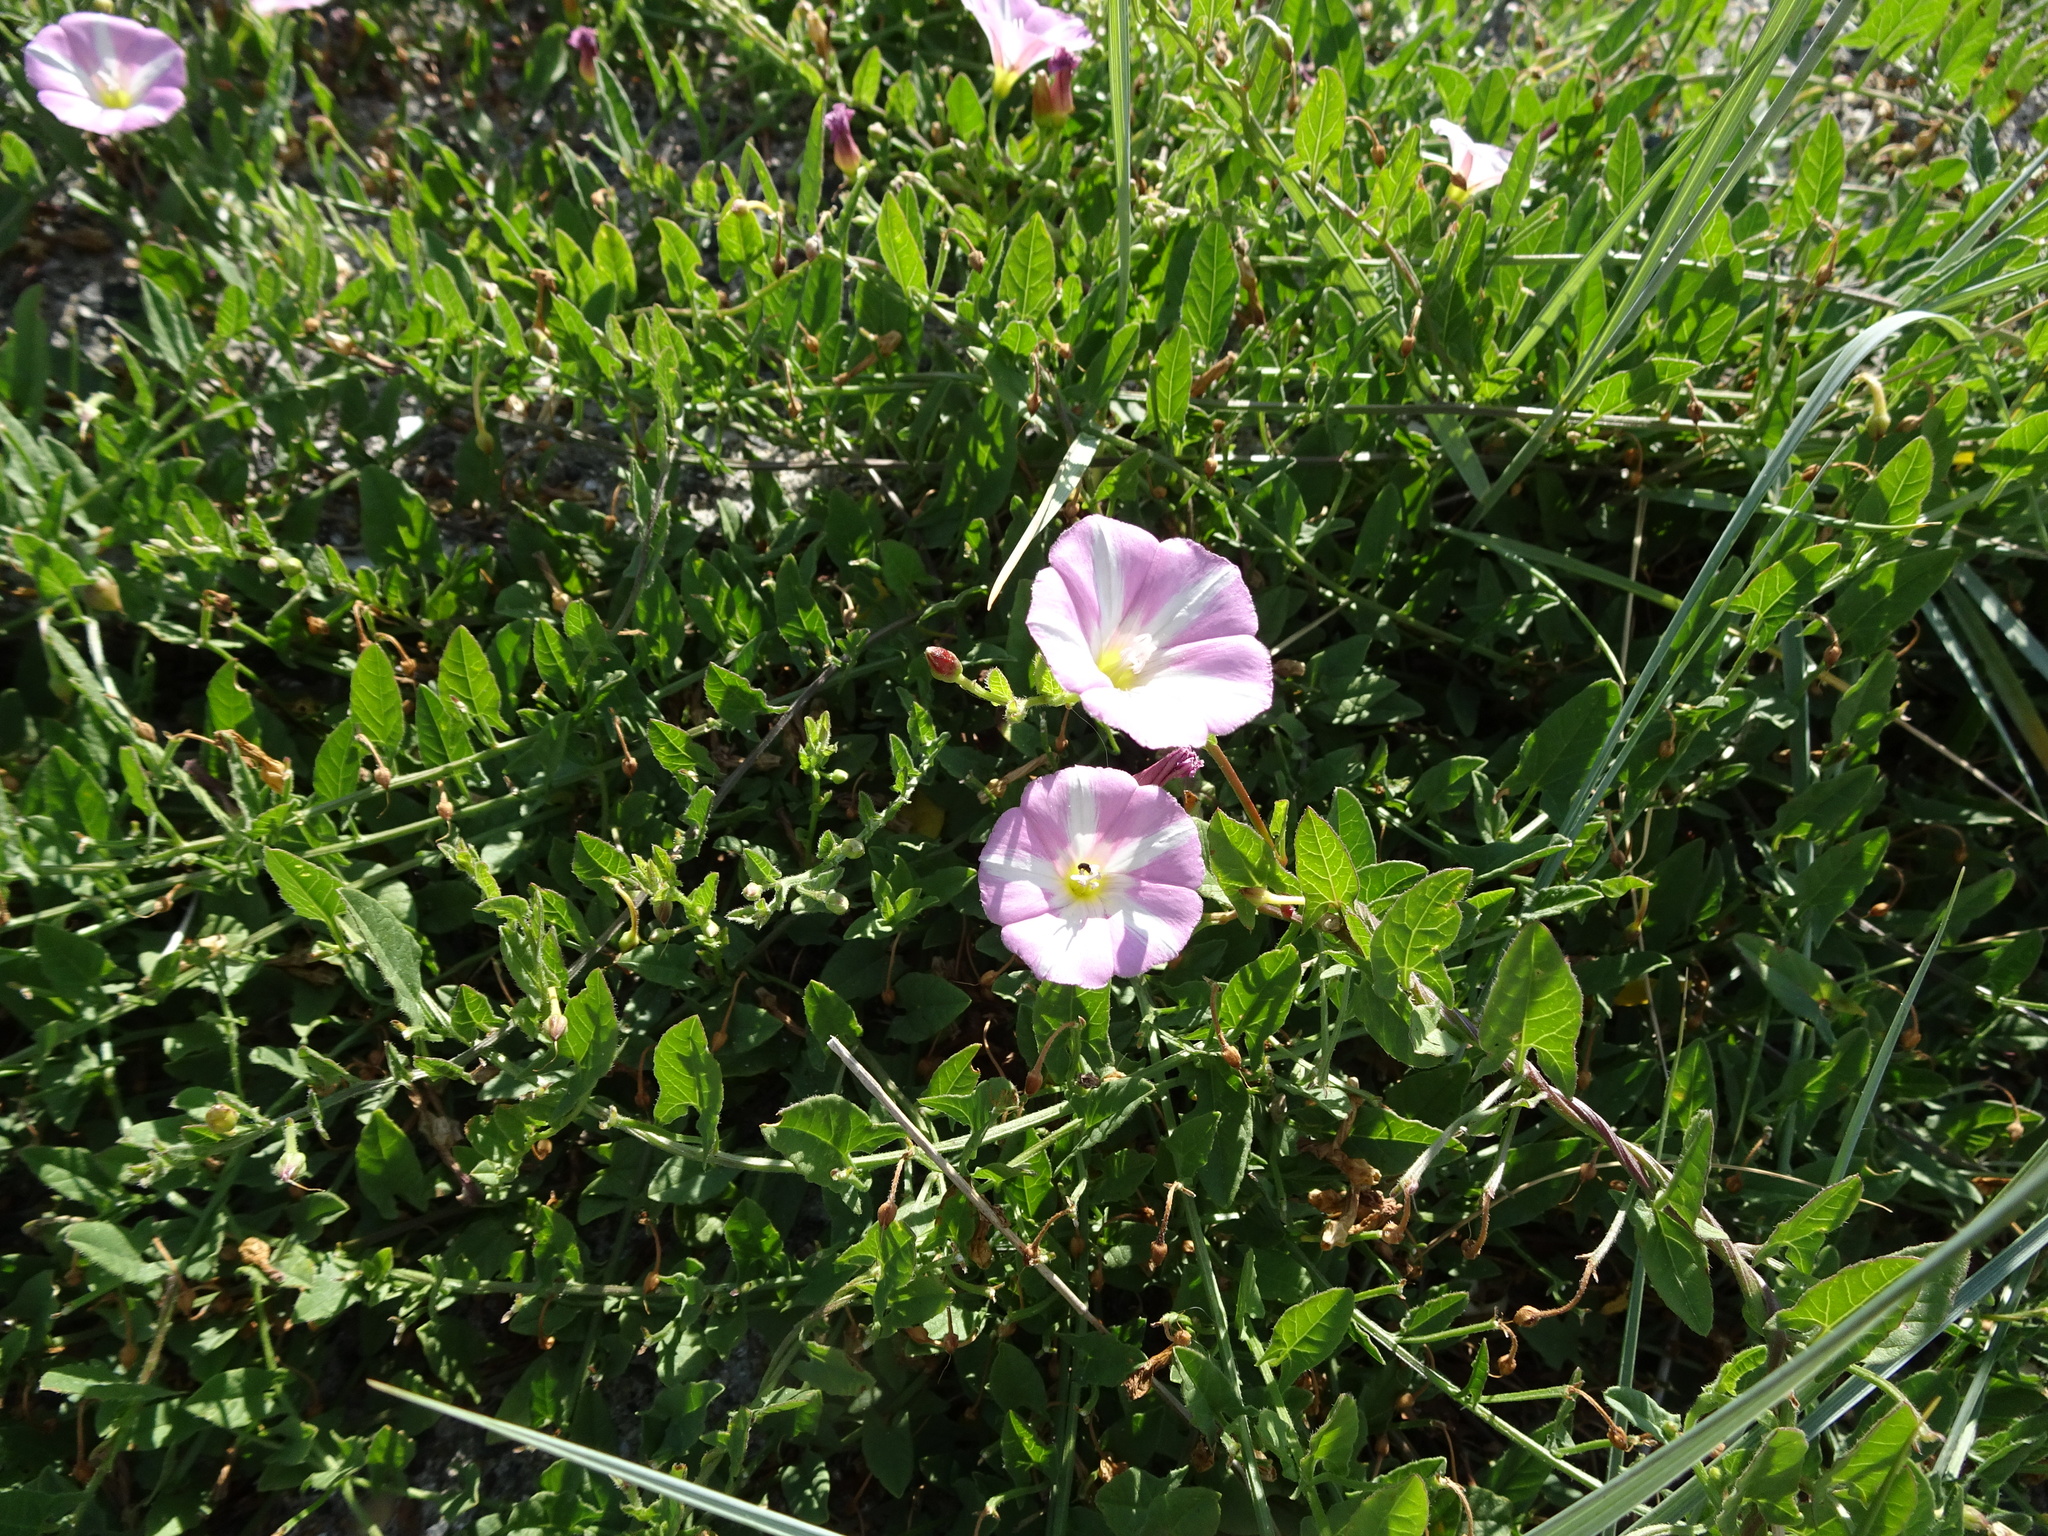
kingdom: Plantae
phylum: Tracheophyta
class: Magnoliopsida
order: Solanales
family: Convolvulaceae
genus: Convolvulus
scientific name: Convolvulus arvensis
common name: Field bindweed
